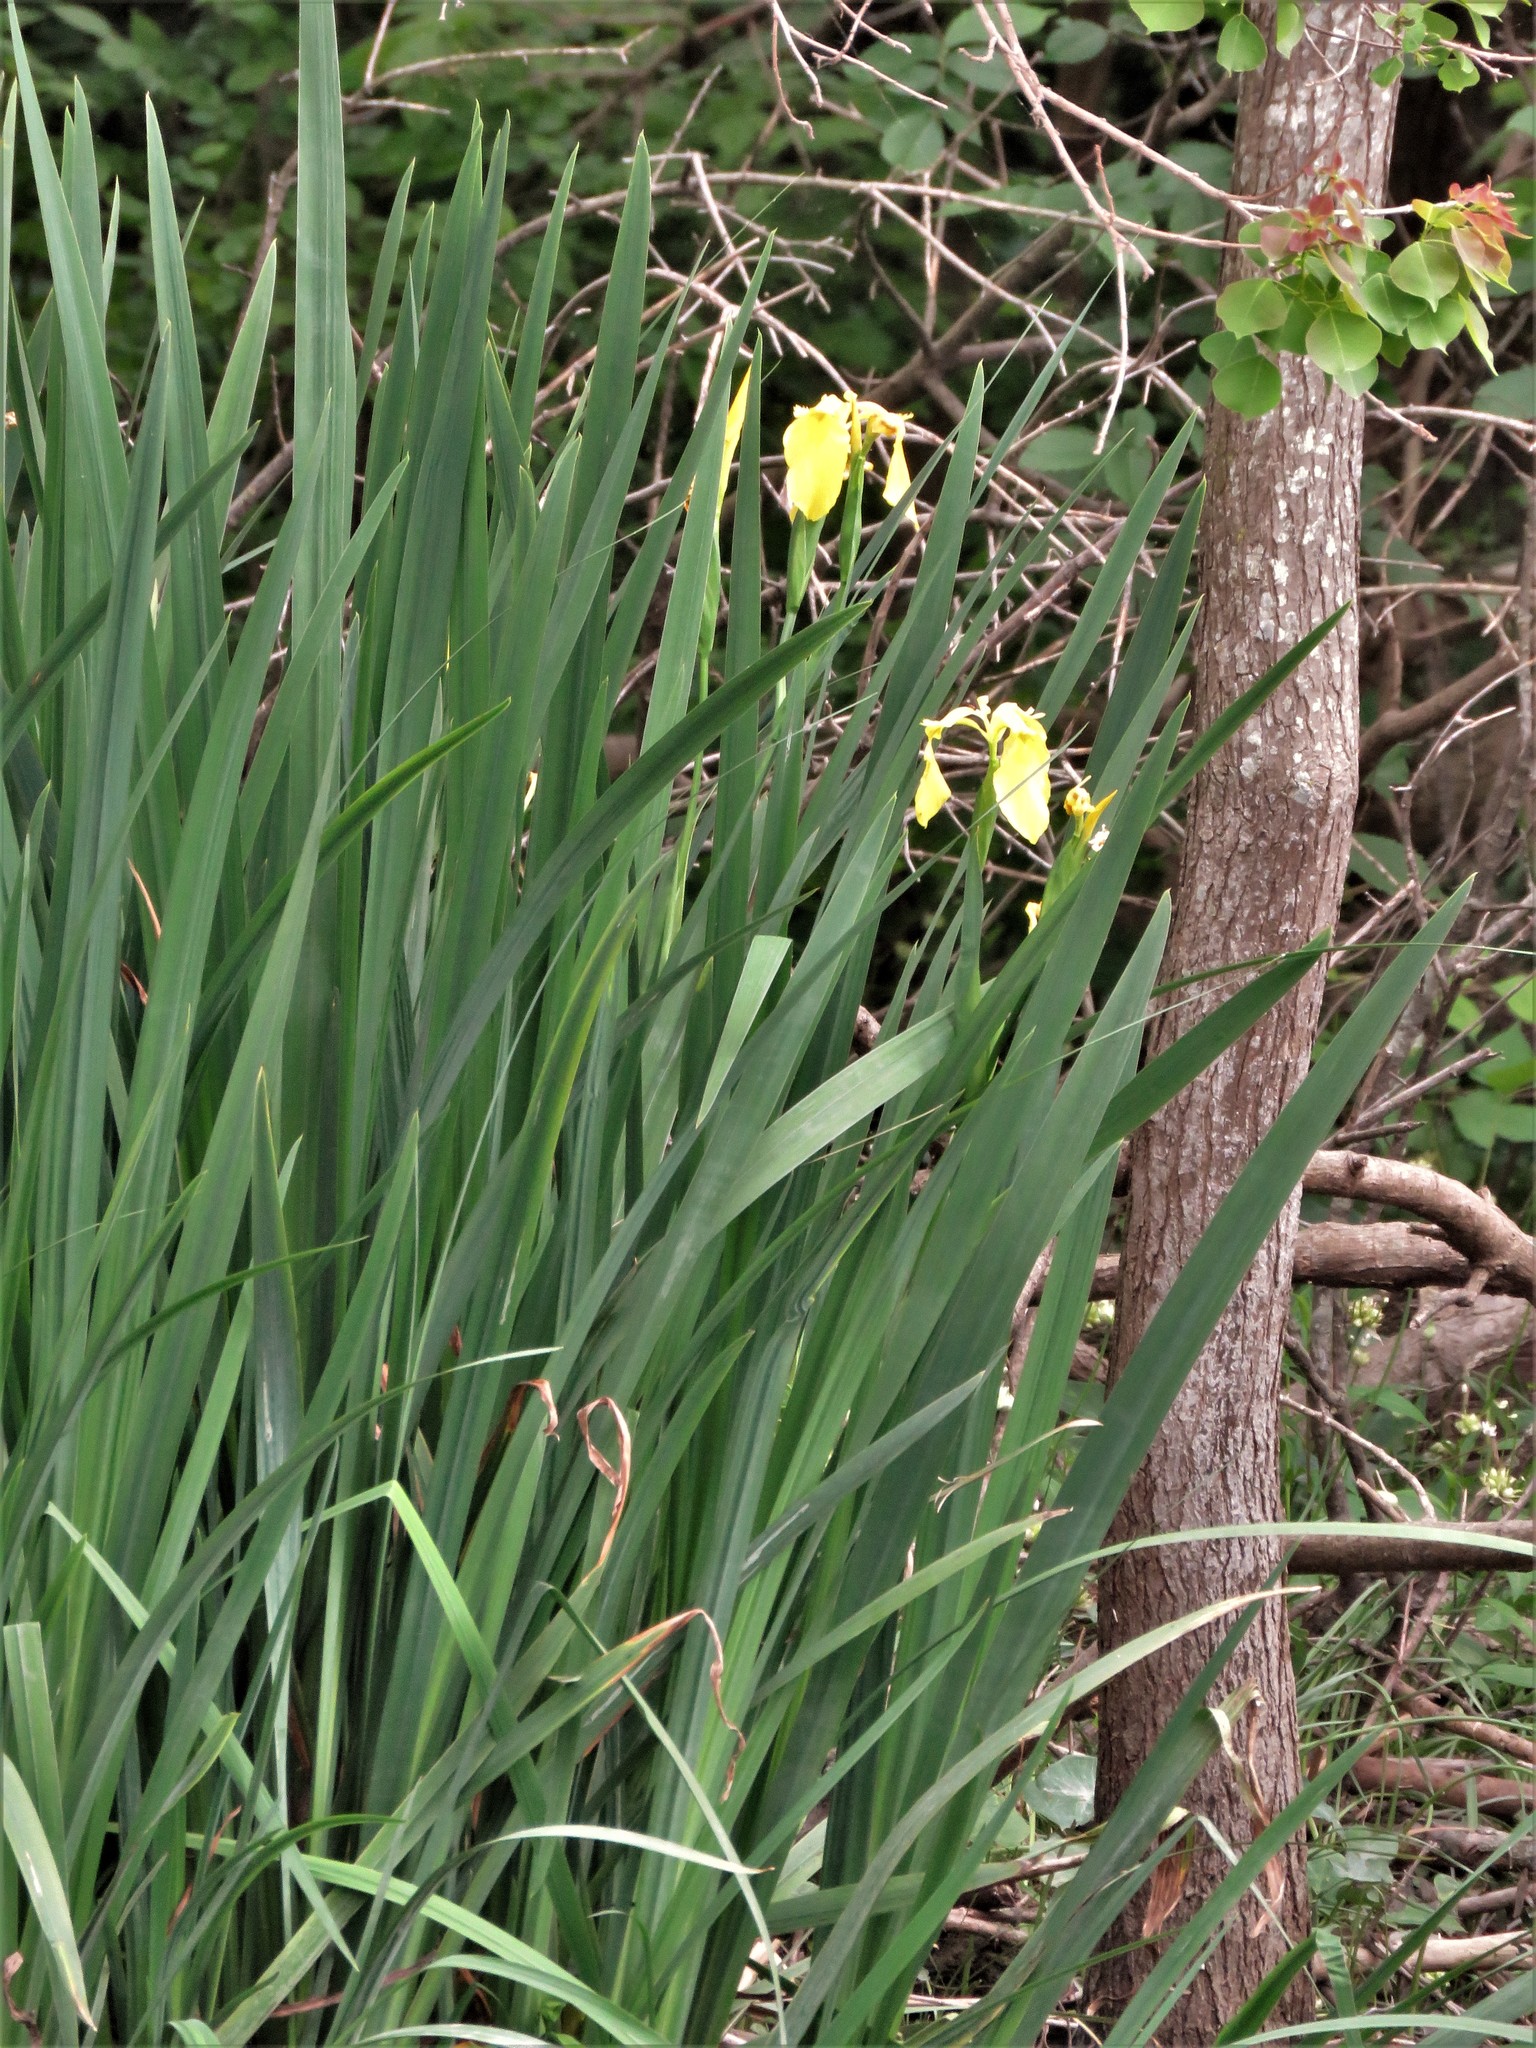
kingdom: Plantae
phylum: Tracheophyta
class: Liliopsida
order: Asparagales
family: Iridaceae
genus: Iris
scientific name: Iris pseudacorus
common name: Yellow flag
